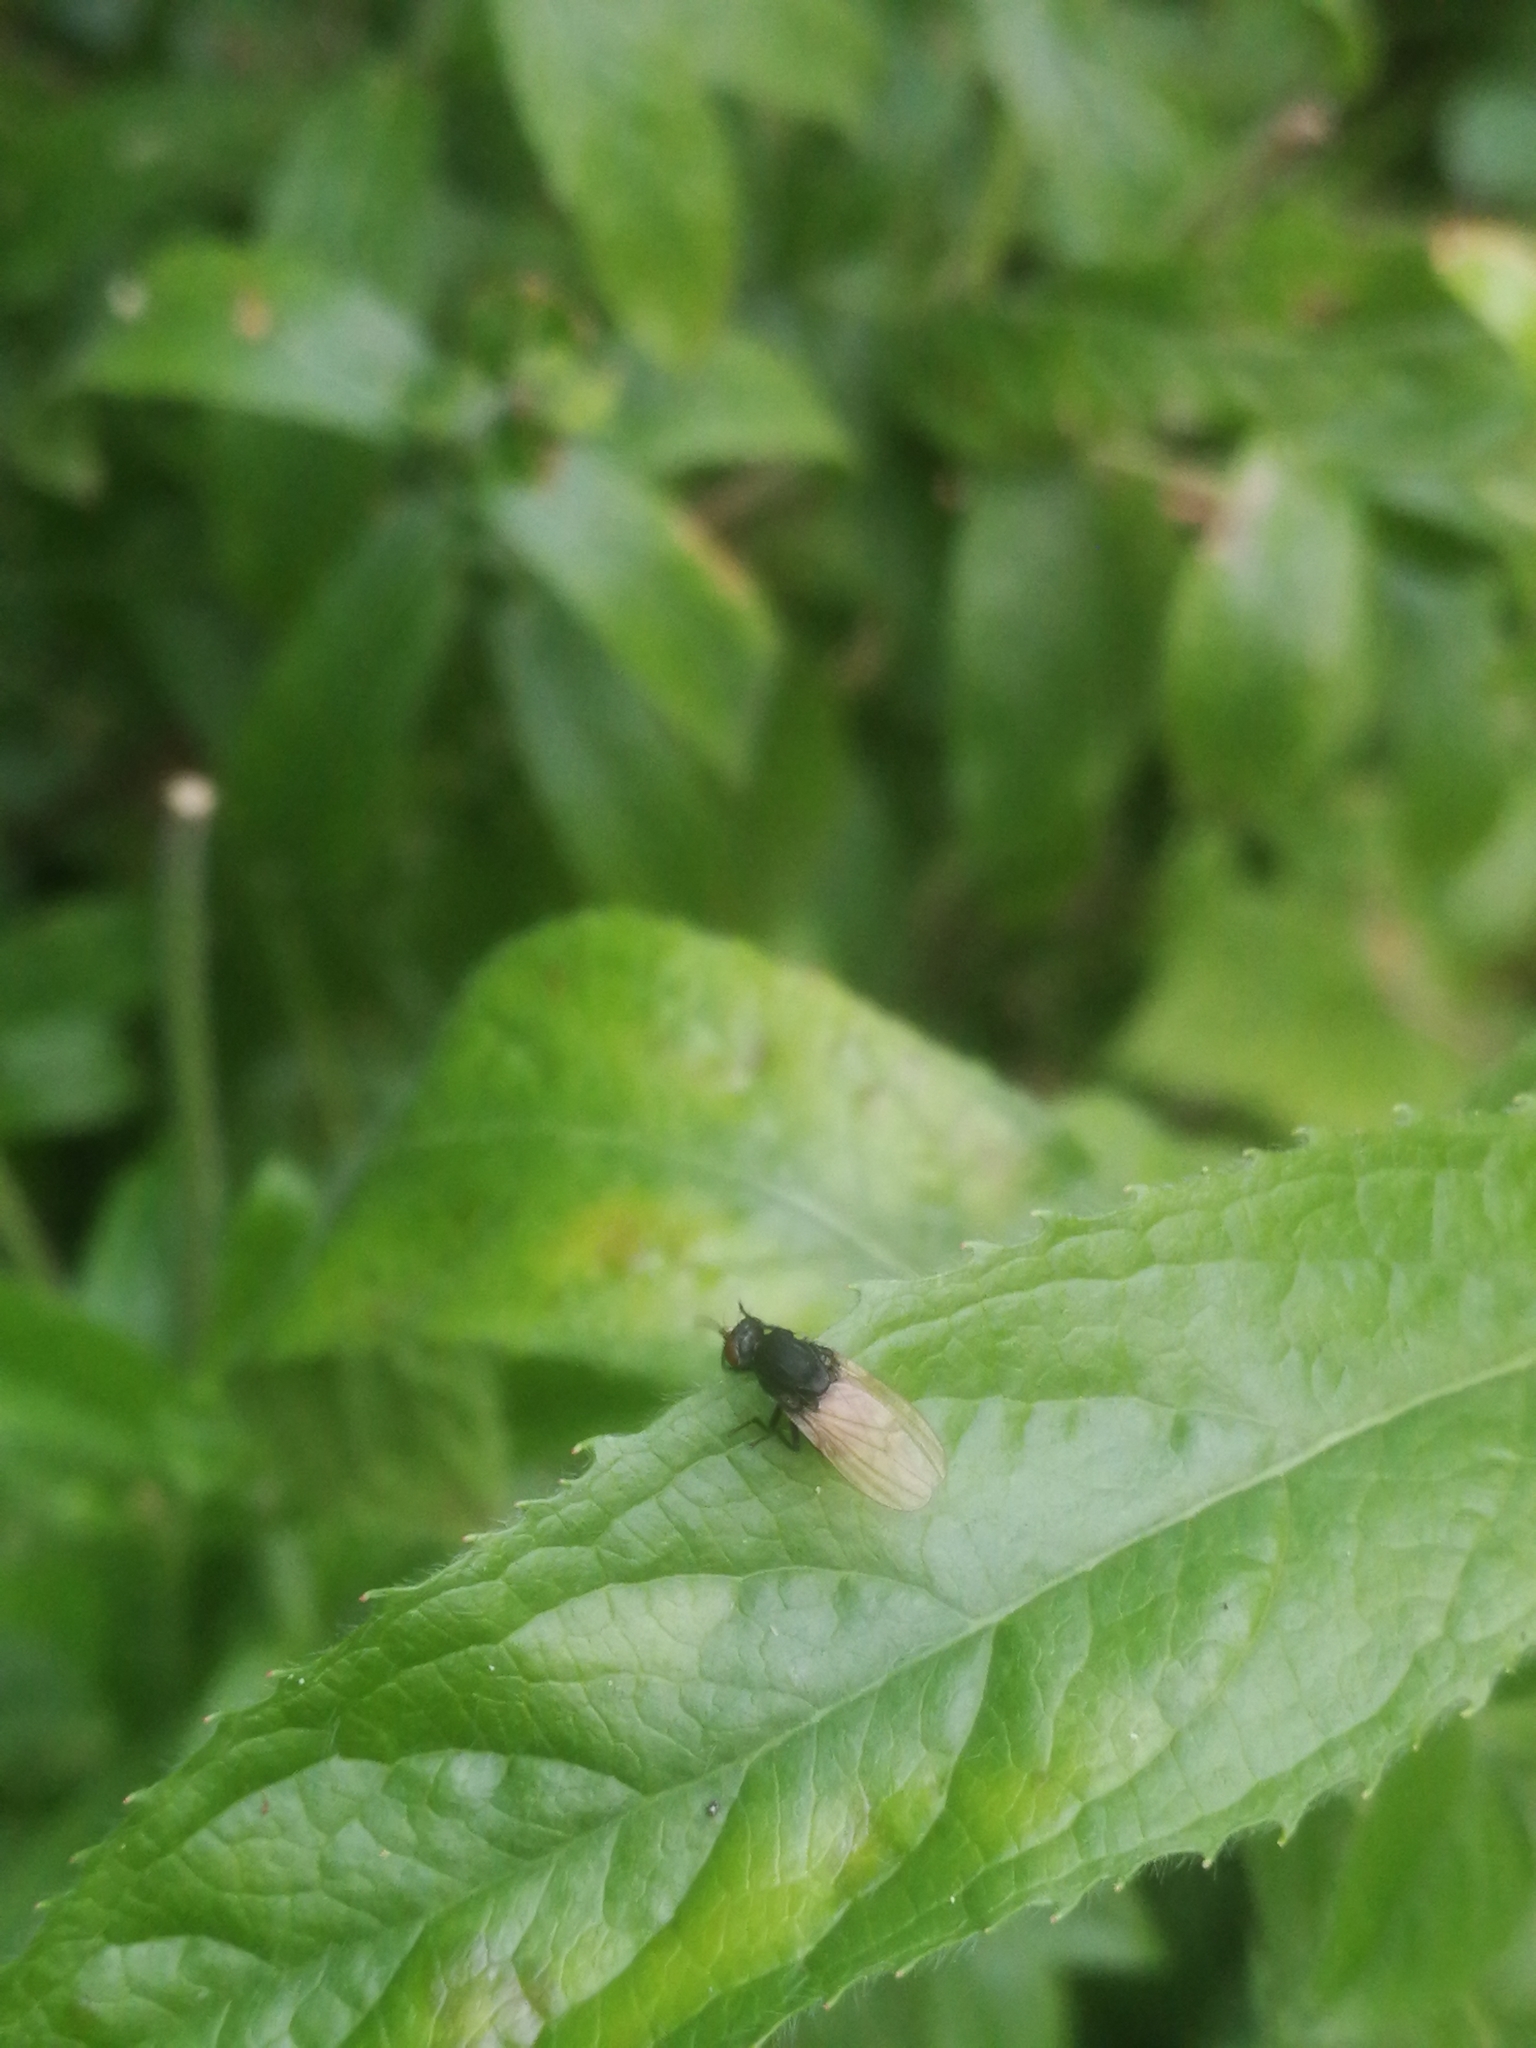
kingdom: Animalia
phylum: Arthropoda
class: Insecta
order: Diptera
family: Lauxaniidae
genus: Minettia
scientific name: Minettia longipennis
